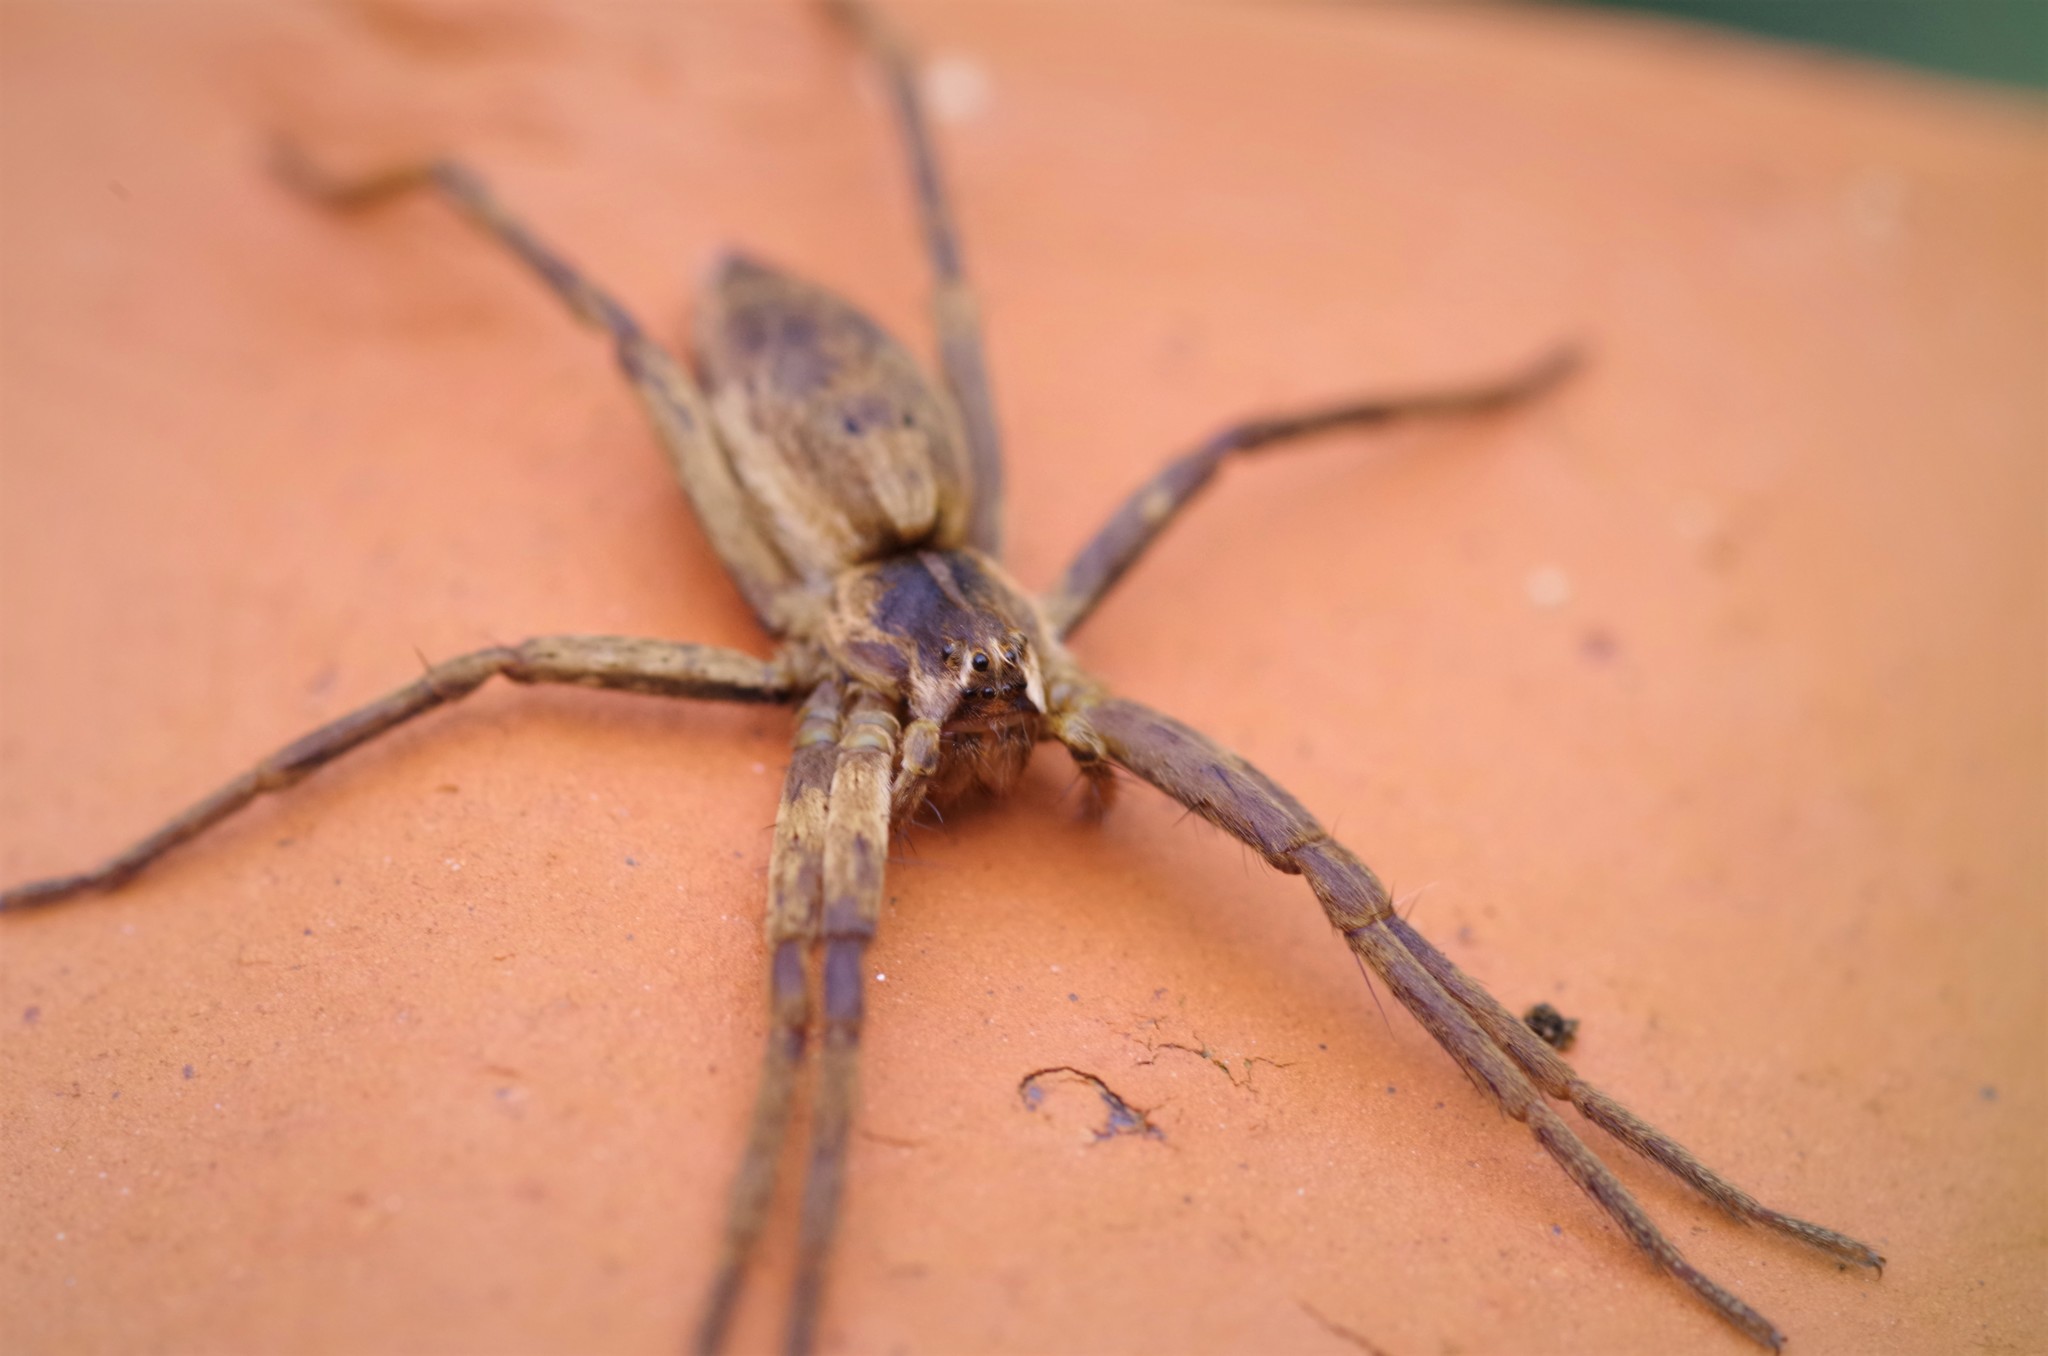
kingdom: Animalia
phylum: Arthropoda
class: Arachnida
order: Araneae
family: Pisauridae
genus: Pisaura
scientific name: Pisaura mirabilis
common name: Tent spider
